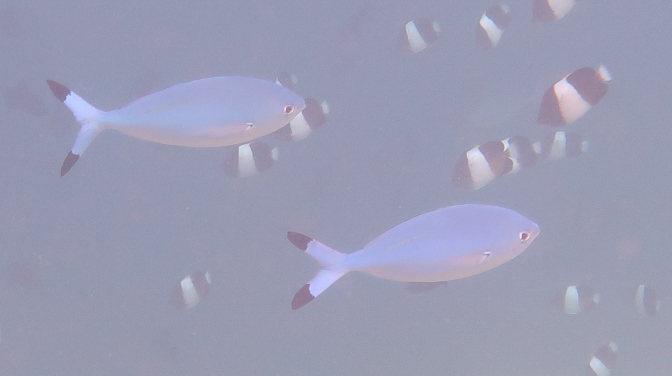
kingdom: Animalia
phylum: Chordata
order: Perciformes
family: Caesionidae
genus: Caesio
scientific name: Caesio lunaris
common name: Blue fusilier
